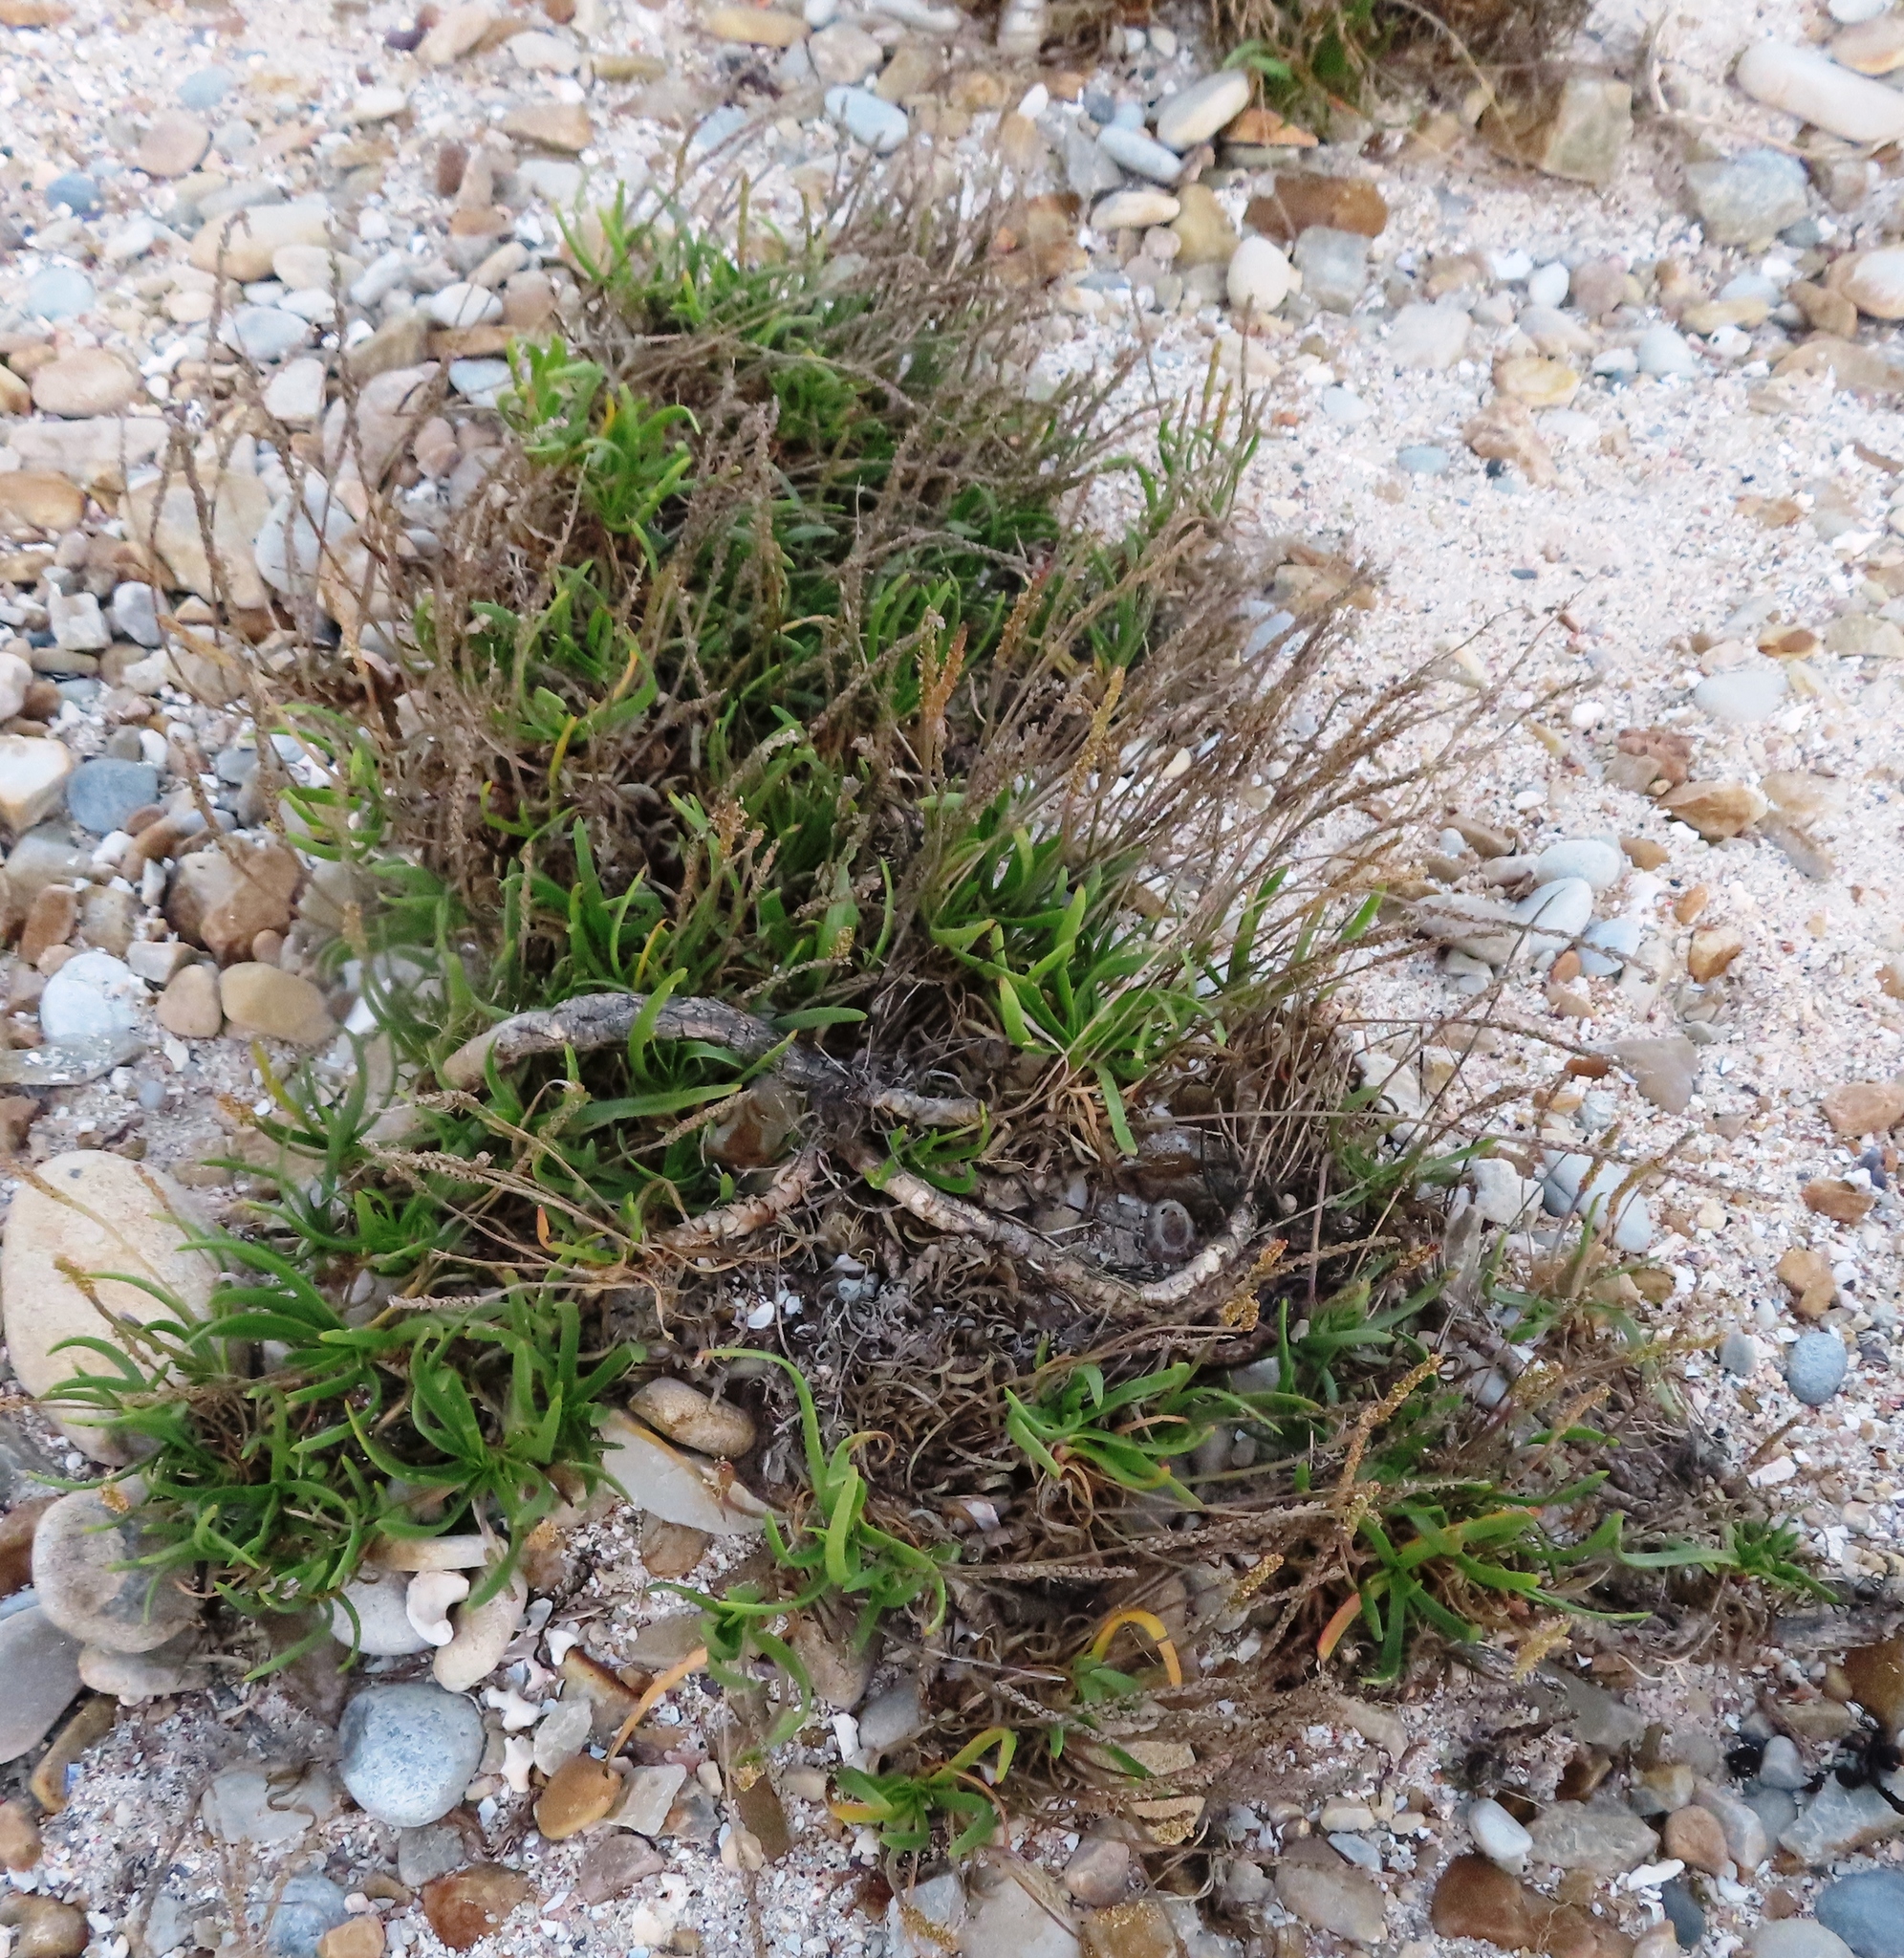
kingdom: Plantae
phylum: Tracheophyta
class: Magnoliopsida
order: Lamiales
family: Plantaginaceae
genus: Plantago
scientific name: Plantago carnosa
